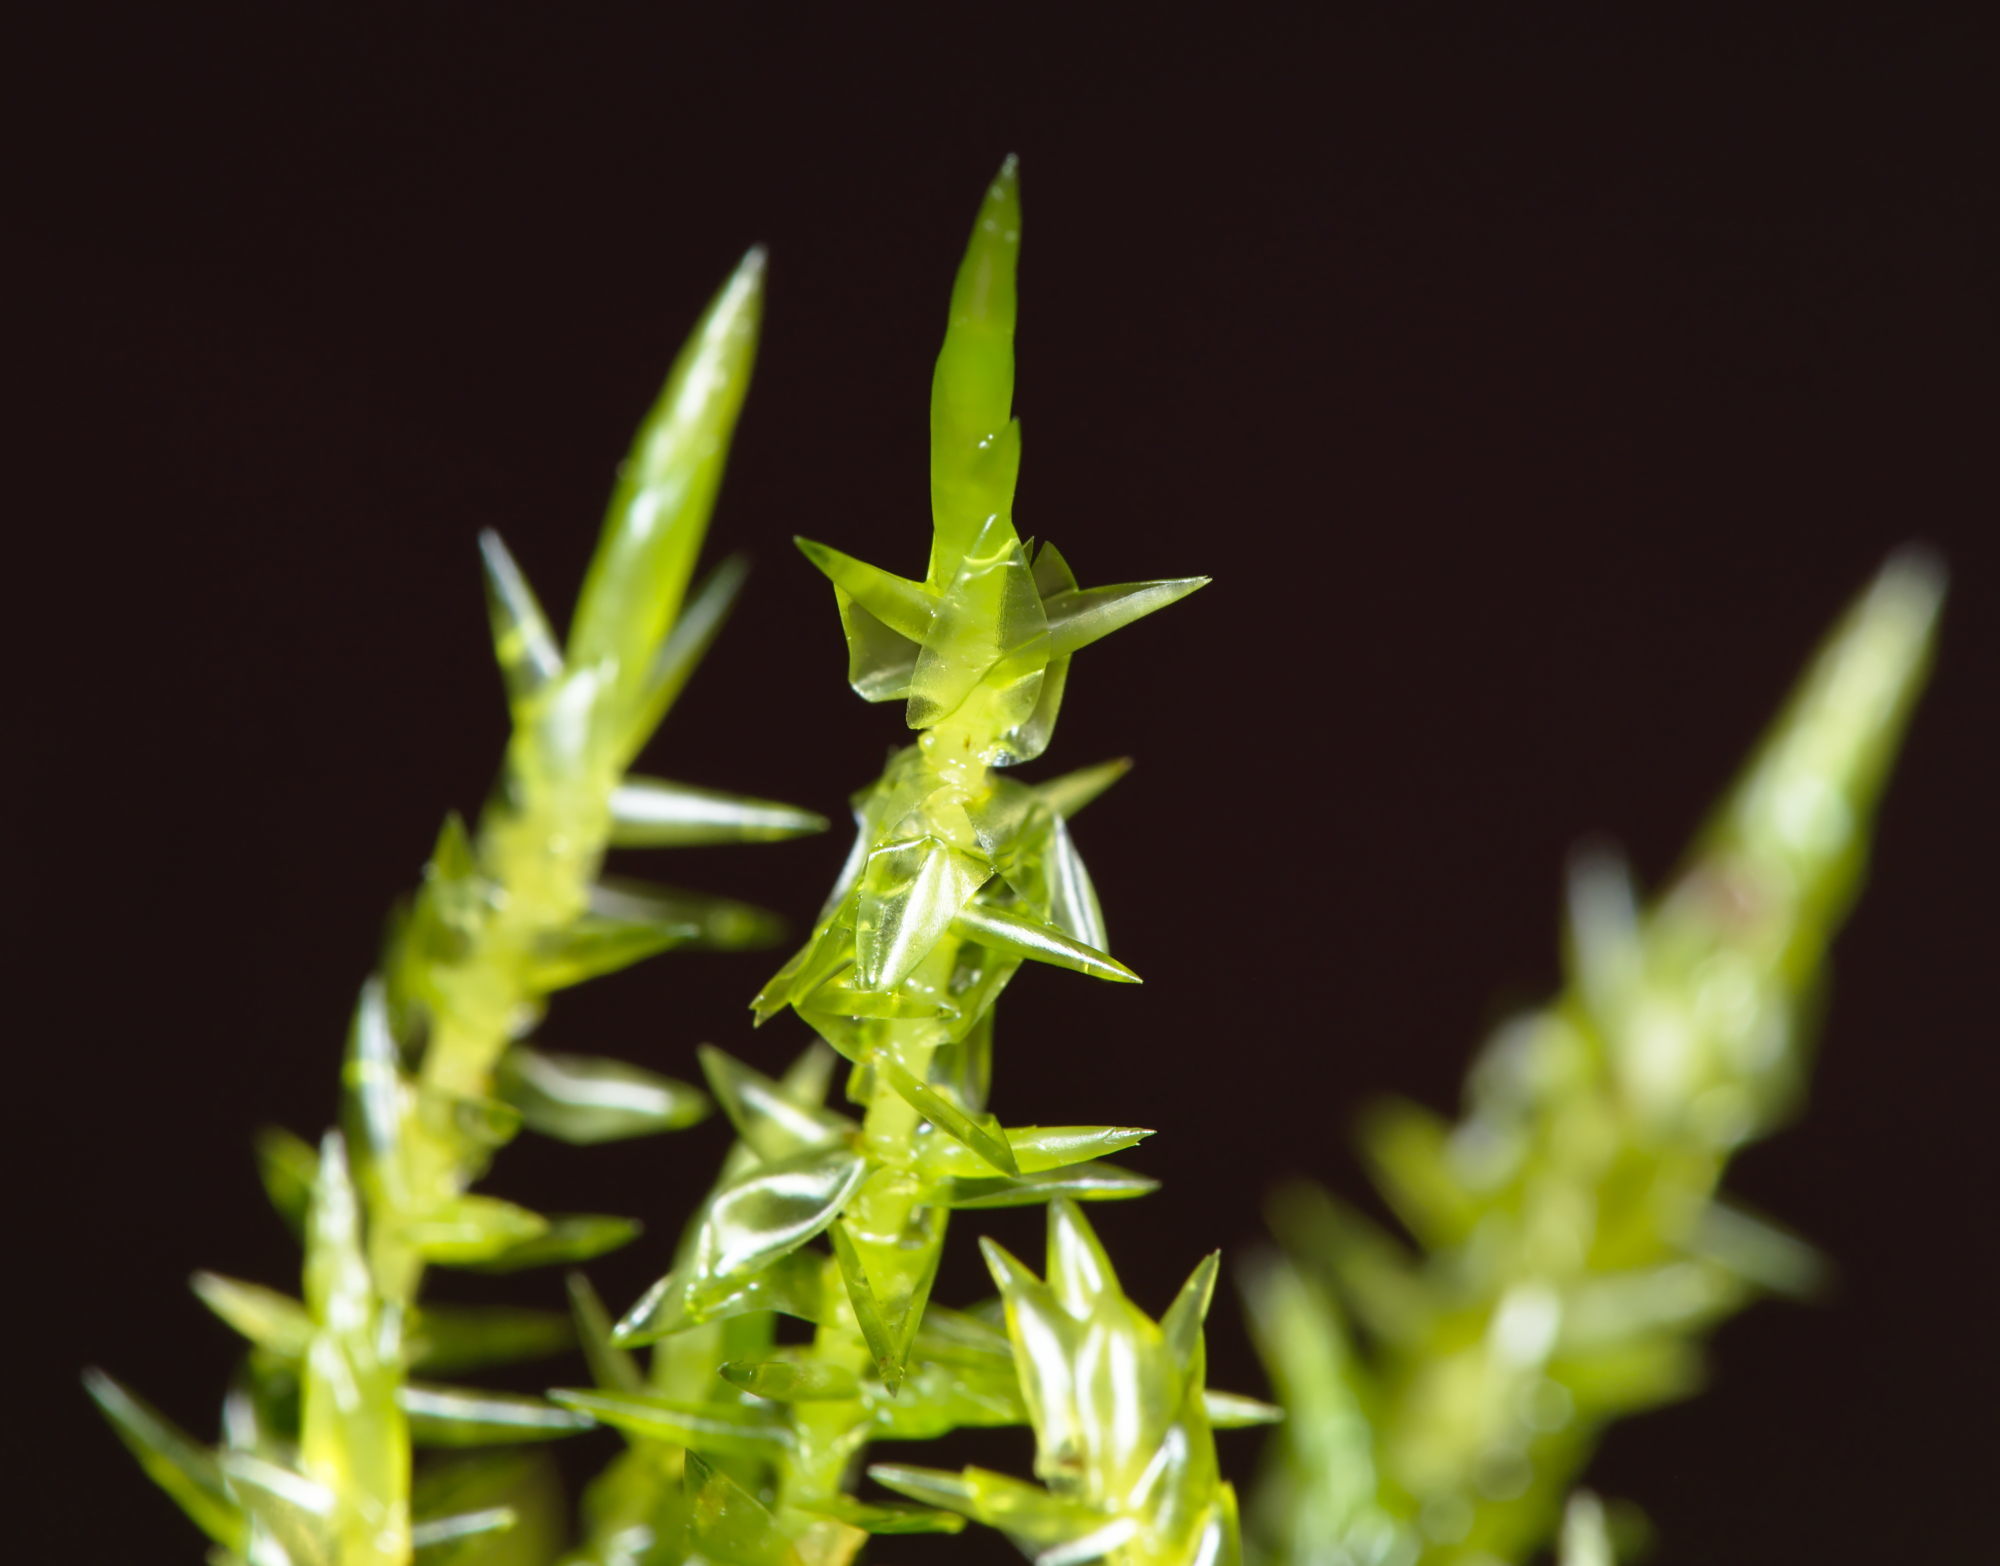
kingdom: Plantae
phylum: Bryophyta
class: Bryopsida
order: Hypnales
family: Pylaisiaceae
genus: Calliergonella
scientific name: Calliergonella cuspidata
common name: Common large wetland moss
